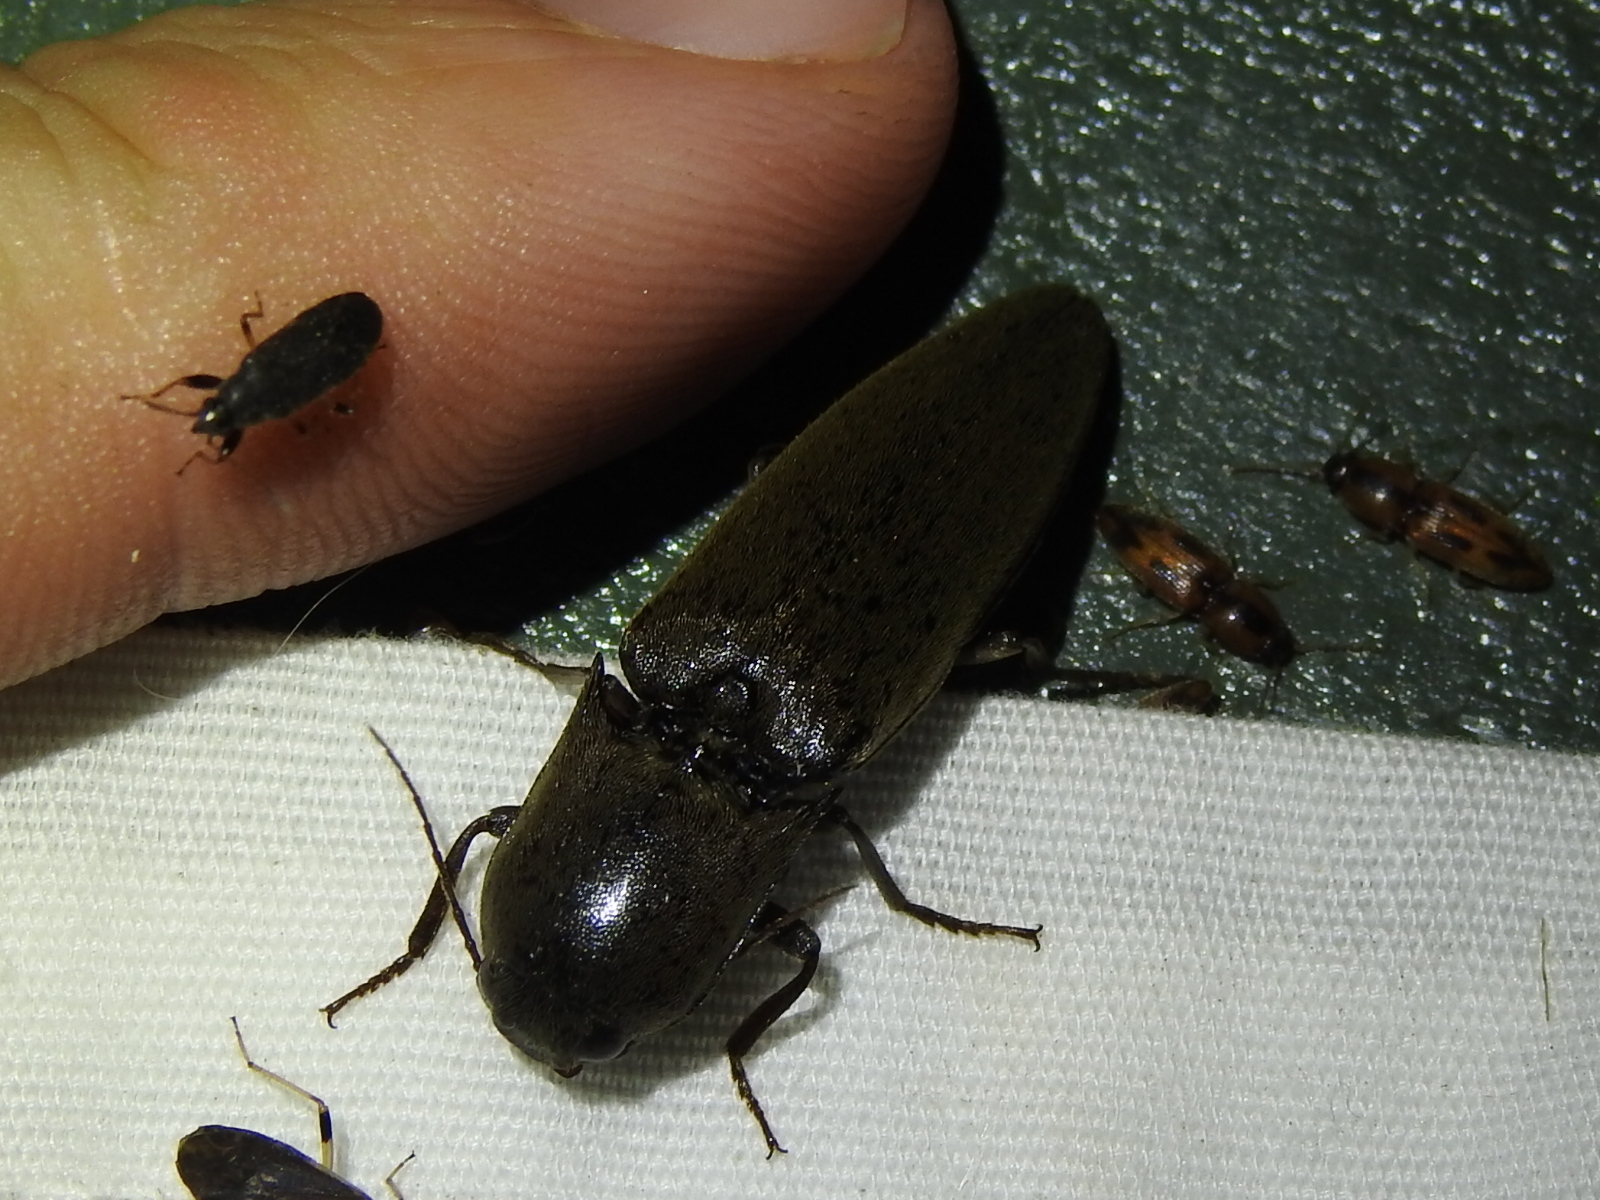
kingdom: Animalia
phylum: Arthropoda
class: Insecta
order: Coleoptera
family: Elateridae
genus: Orthostethus
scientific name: Orthostethus infuscatus
